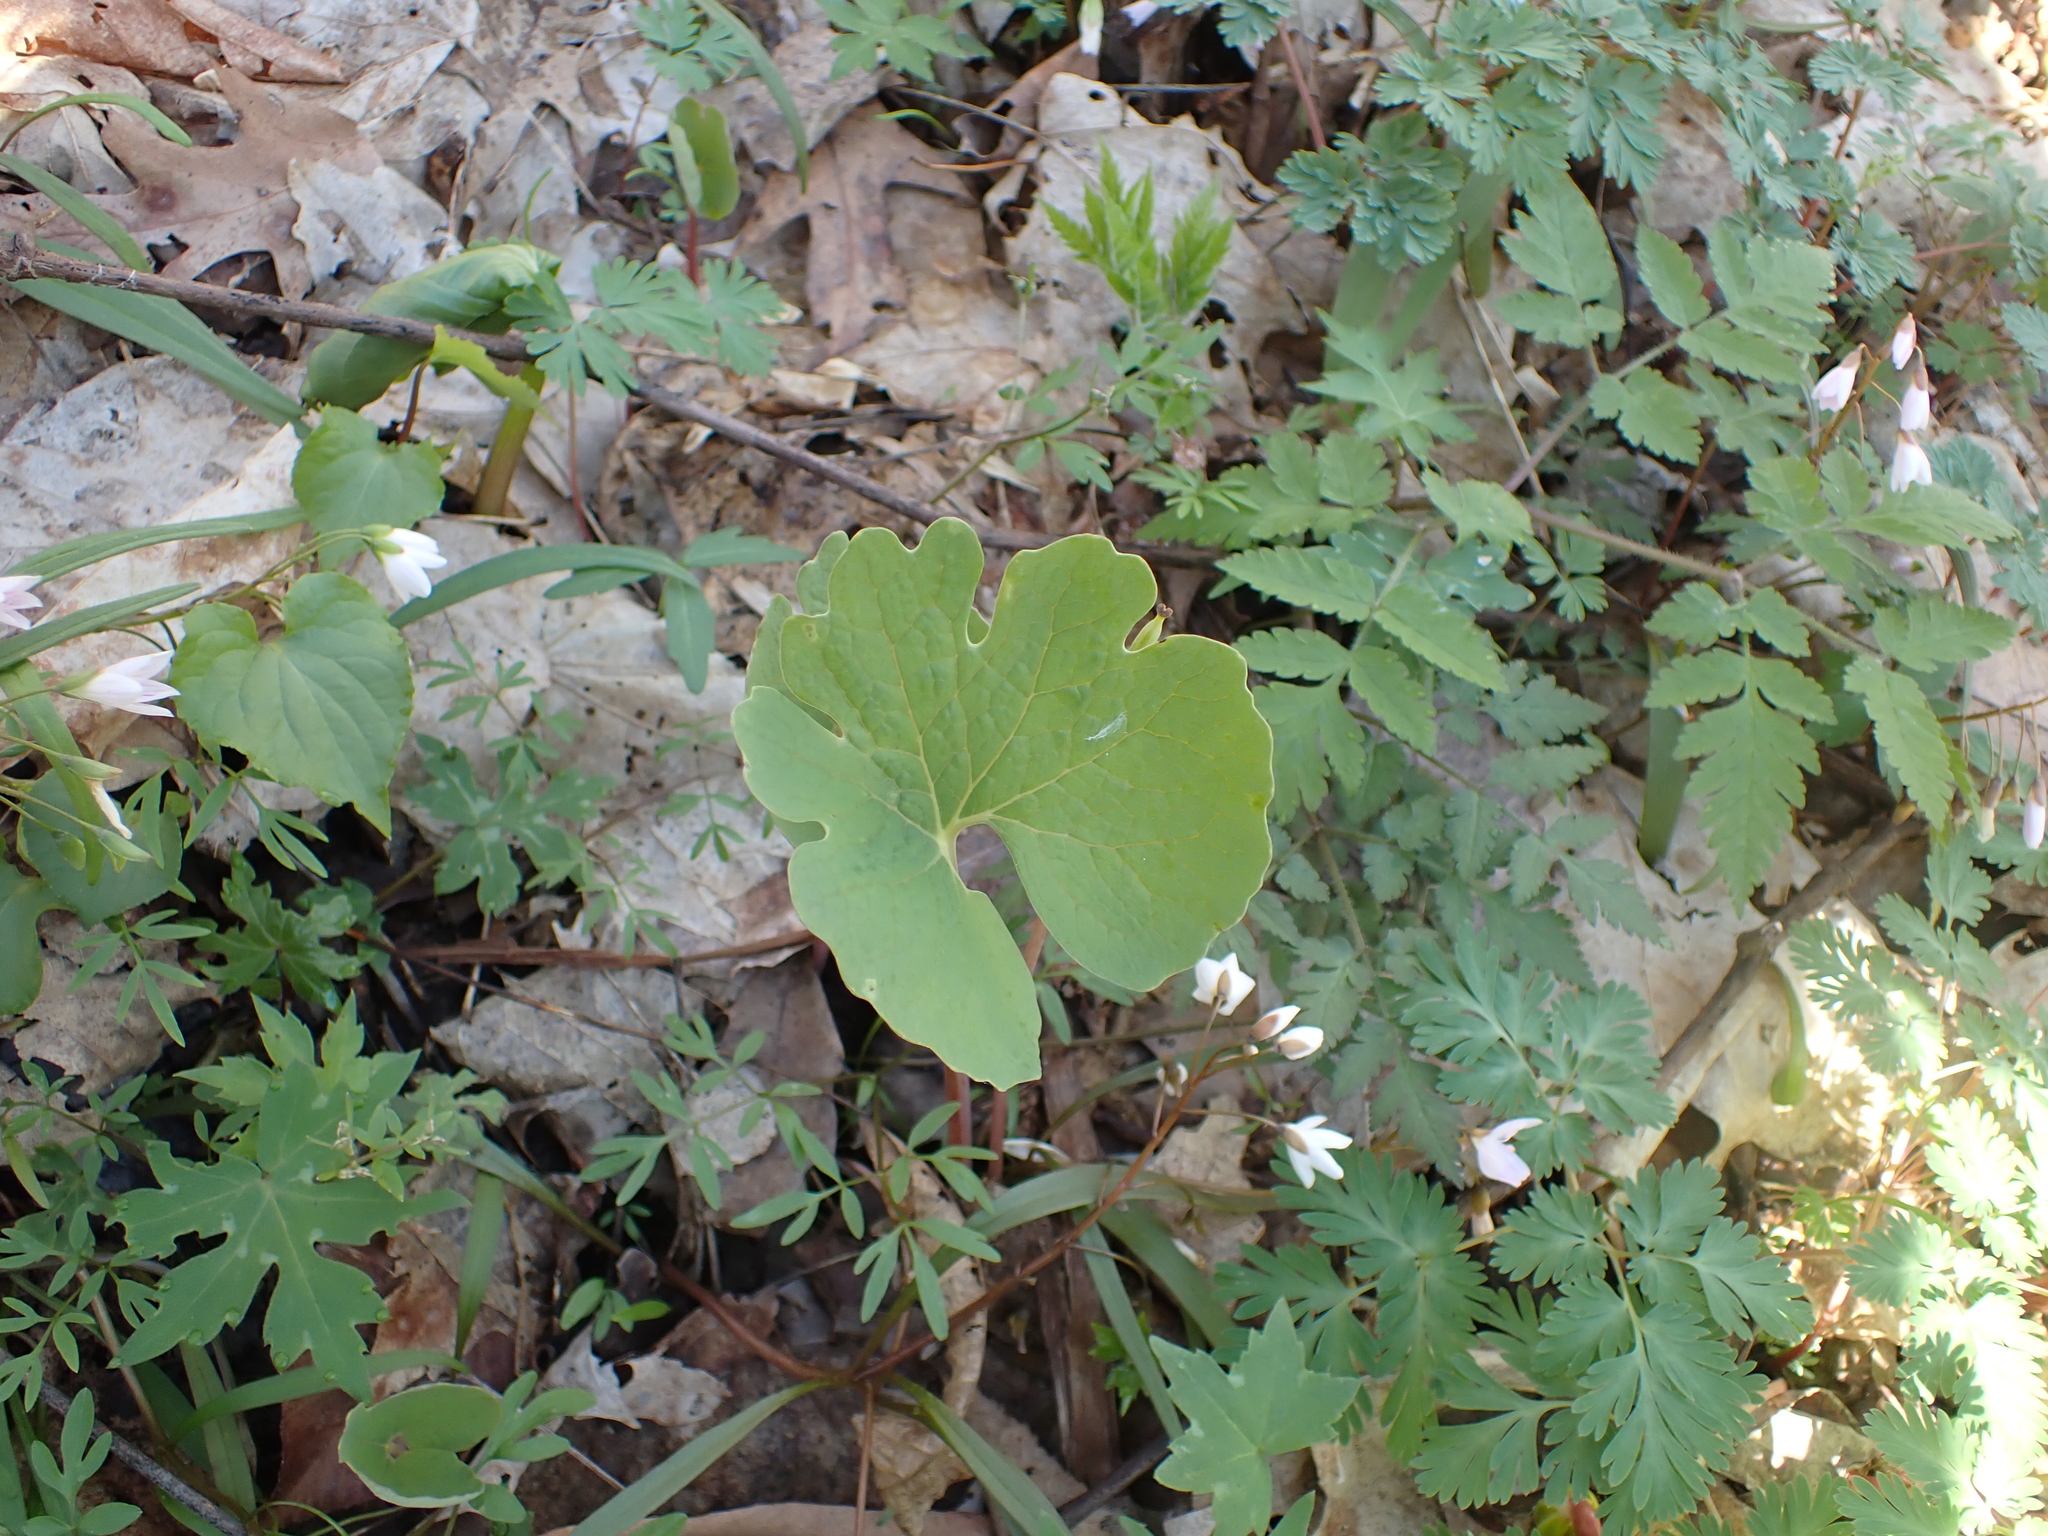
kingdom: Plantae
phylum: Tracheophyta
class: Magnoliopsida
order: Ranunculales
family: Papaveraceae
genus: Sanguinaria
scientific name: Sanguinaria canadensis
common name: Bloodroot
